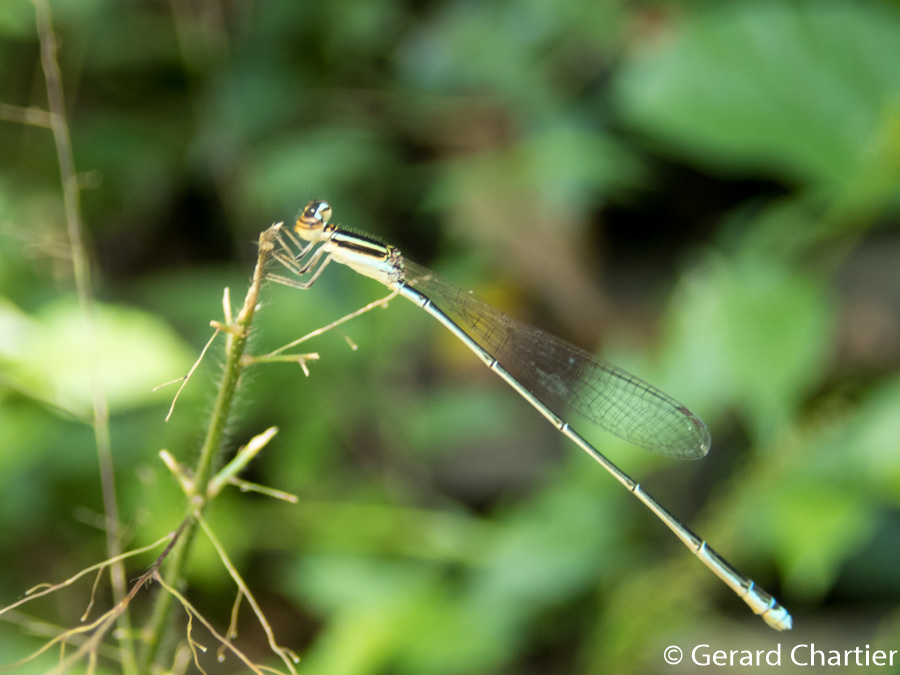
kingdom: Animalia
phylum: Arthropoda
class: Insecta
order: Odonata
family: Coenagrionidae
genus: Aciagrion
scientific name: Aciagrion borneense
